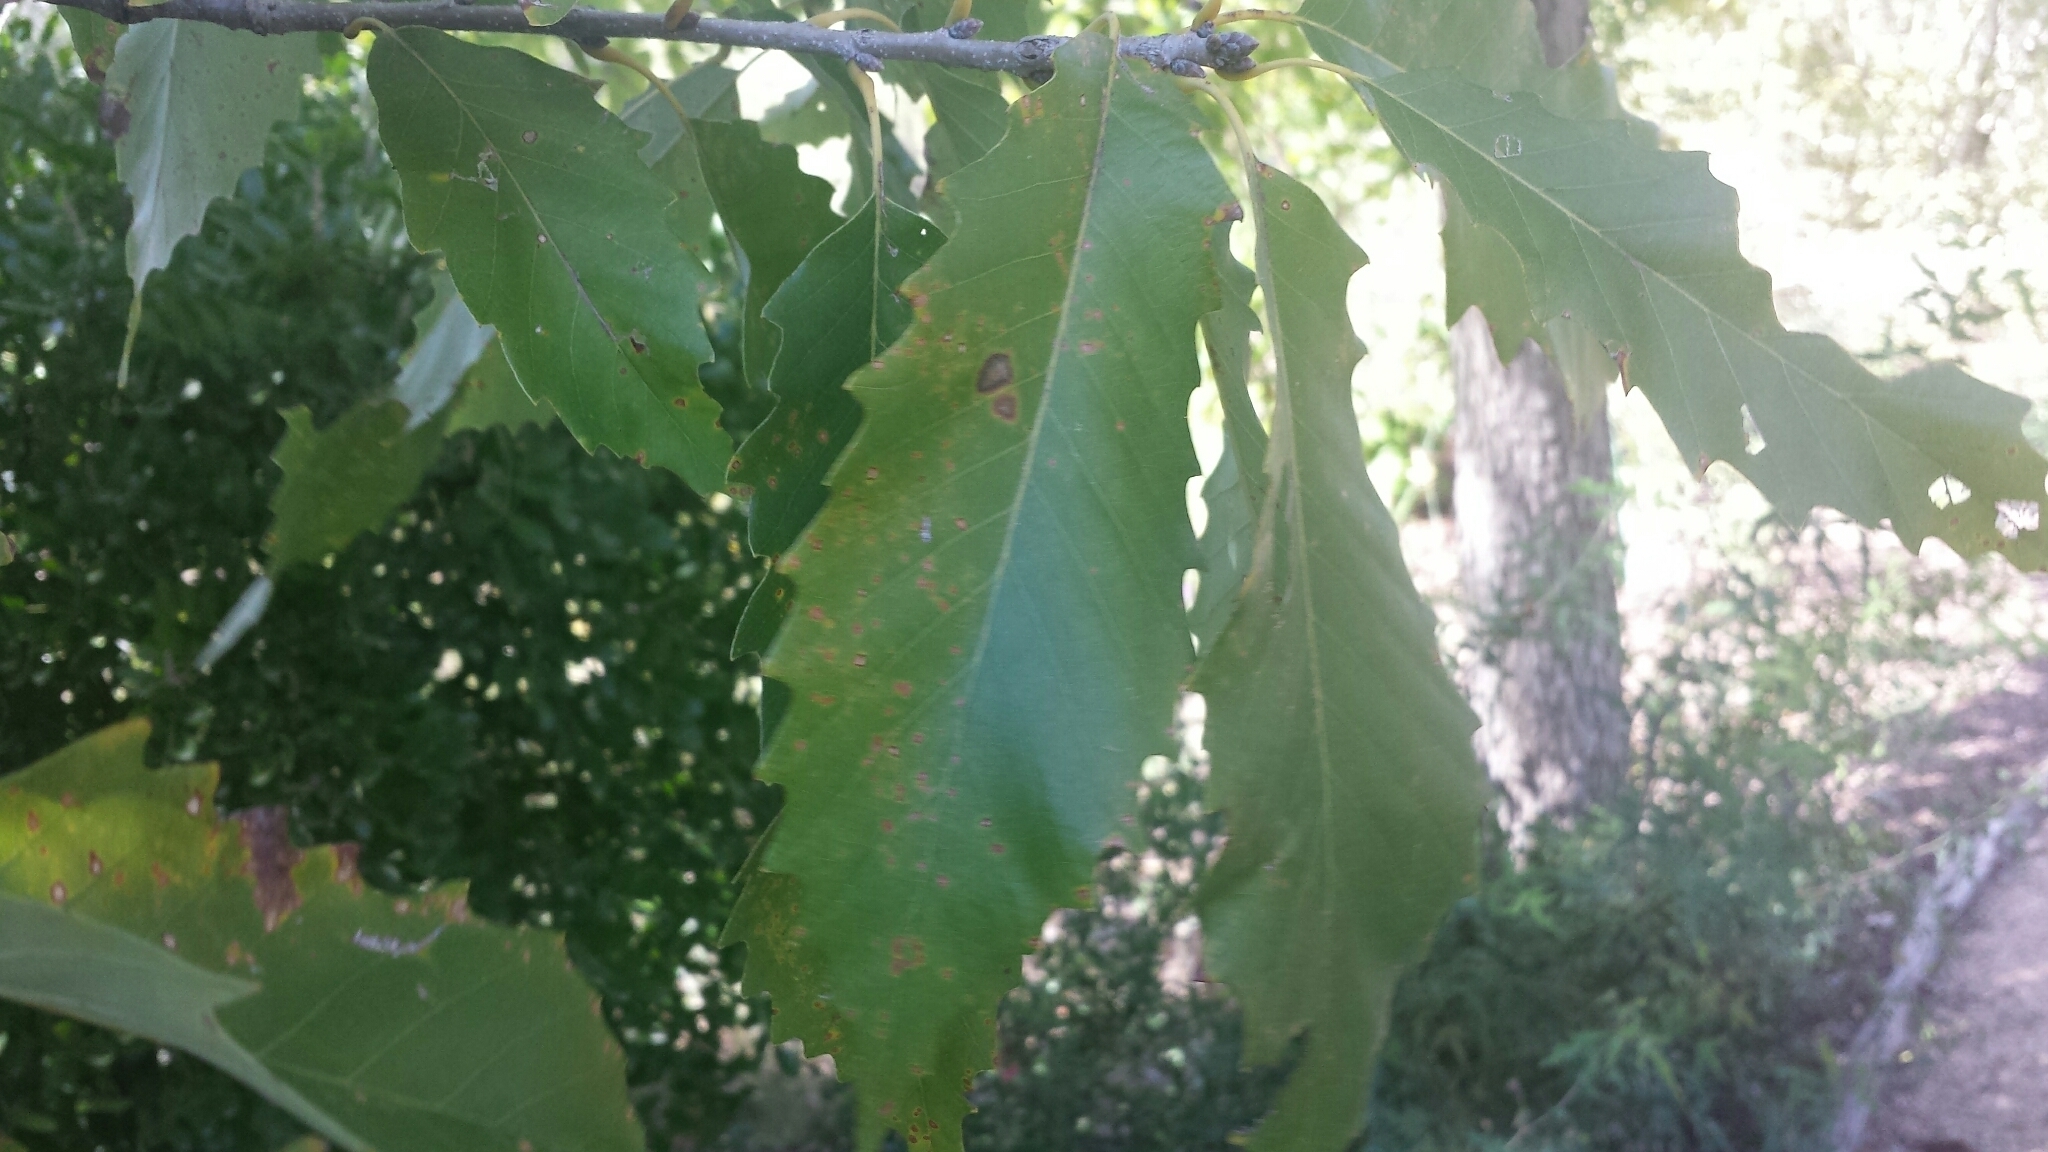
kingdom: Plantae
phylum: Tracheophyta
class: Magnoliopsida
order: Fagales
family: Fagaceae
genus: Quercus
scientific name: Quercus muehlenbergii
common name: Chinkapin oak
